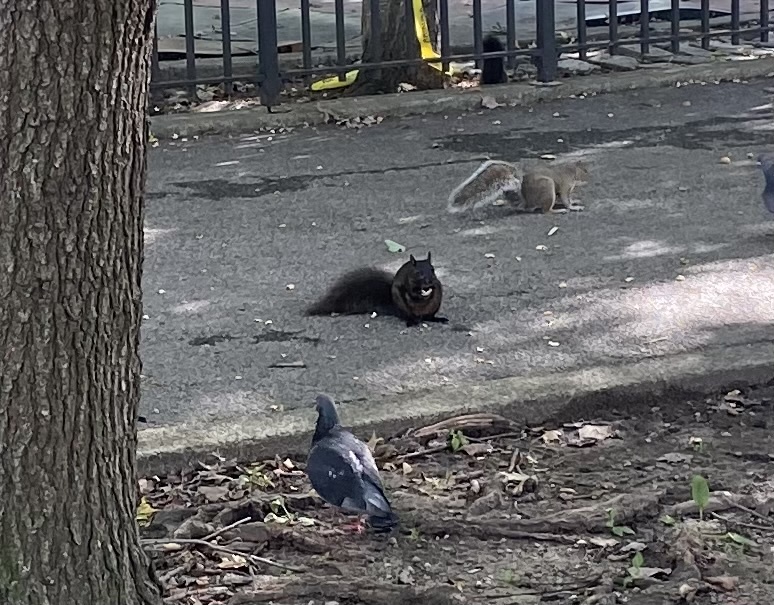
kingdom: Animalia
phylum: Chordata
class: Mammalia
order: Rodentia
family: Sciuridae
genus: Sciurus
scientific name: Sciurus carolinensis
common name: Eastern gray squirrel
